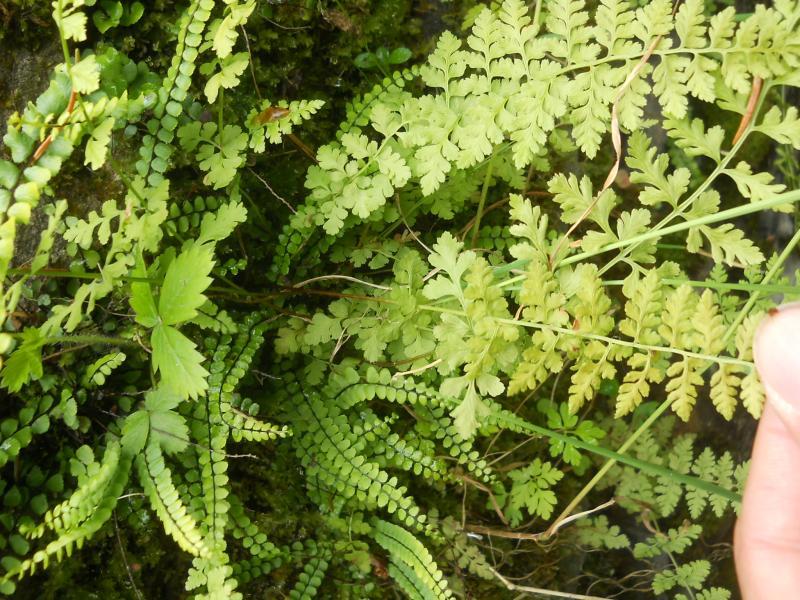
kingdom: Plantae
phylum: Tracheophyta
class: Polypodiopsida
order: Polypodiales
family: Aspleniaceae
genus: Asplenium
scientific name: Asplenium trichomanes
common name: Maidenhair spleenwort
